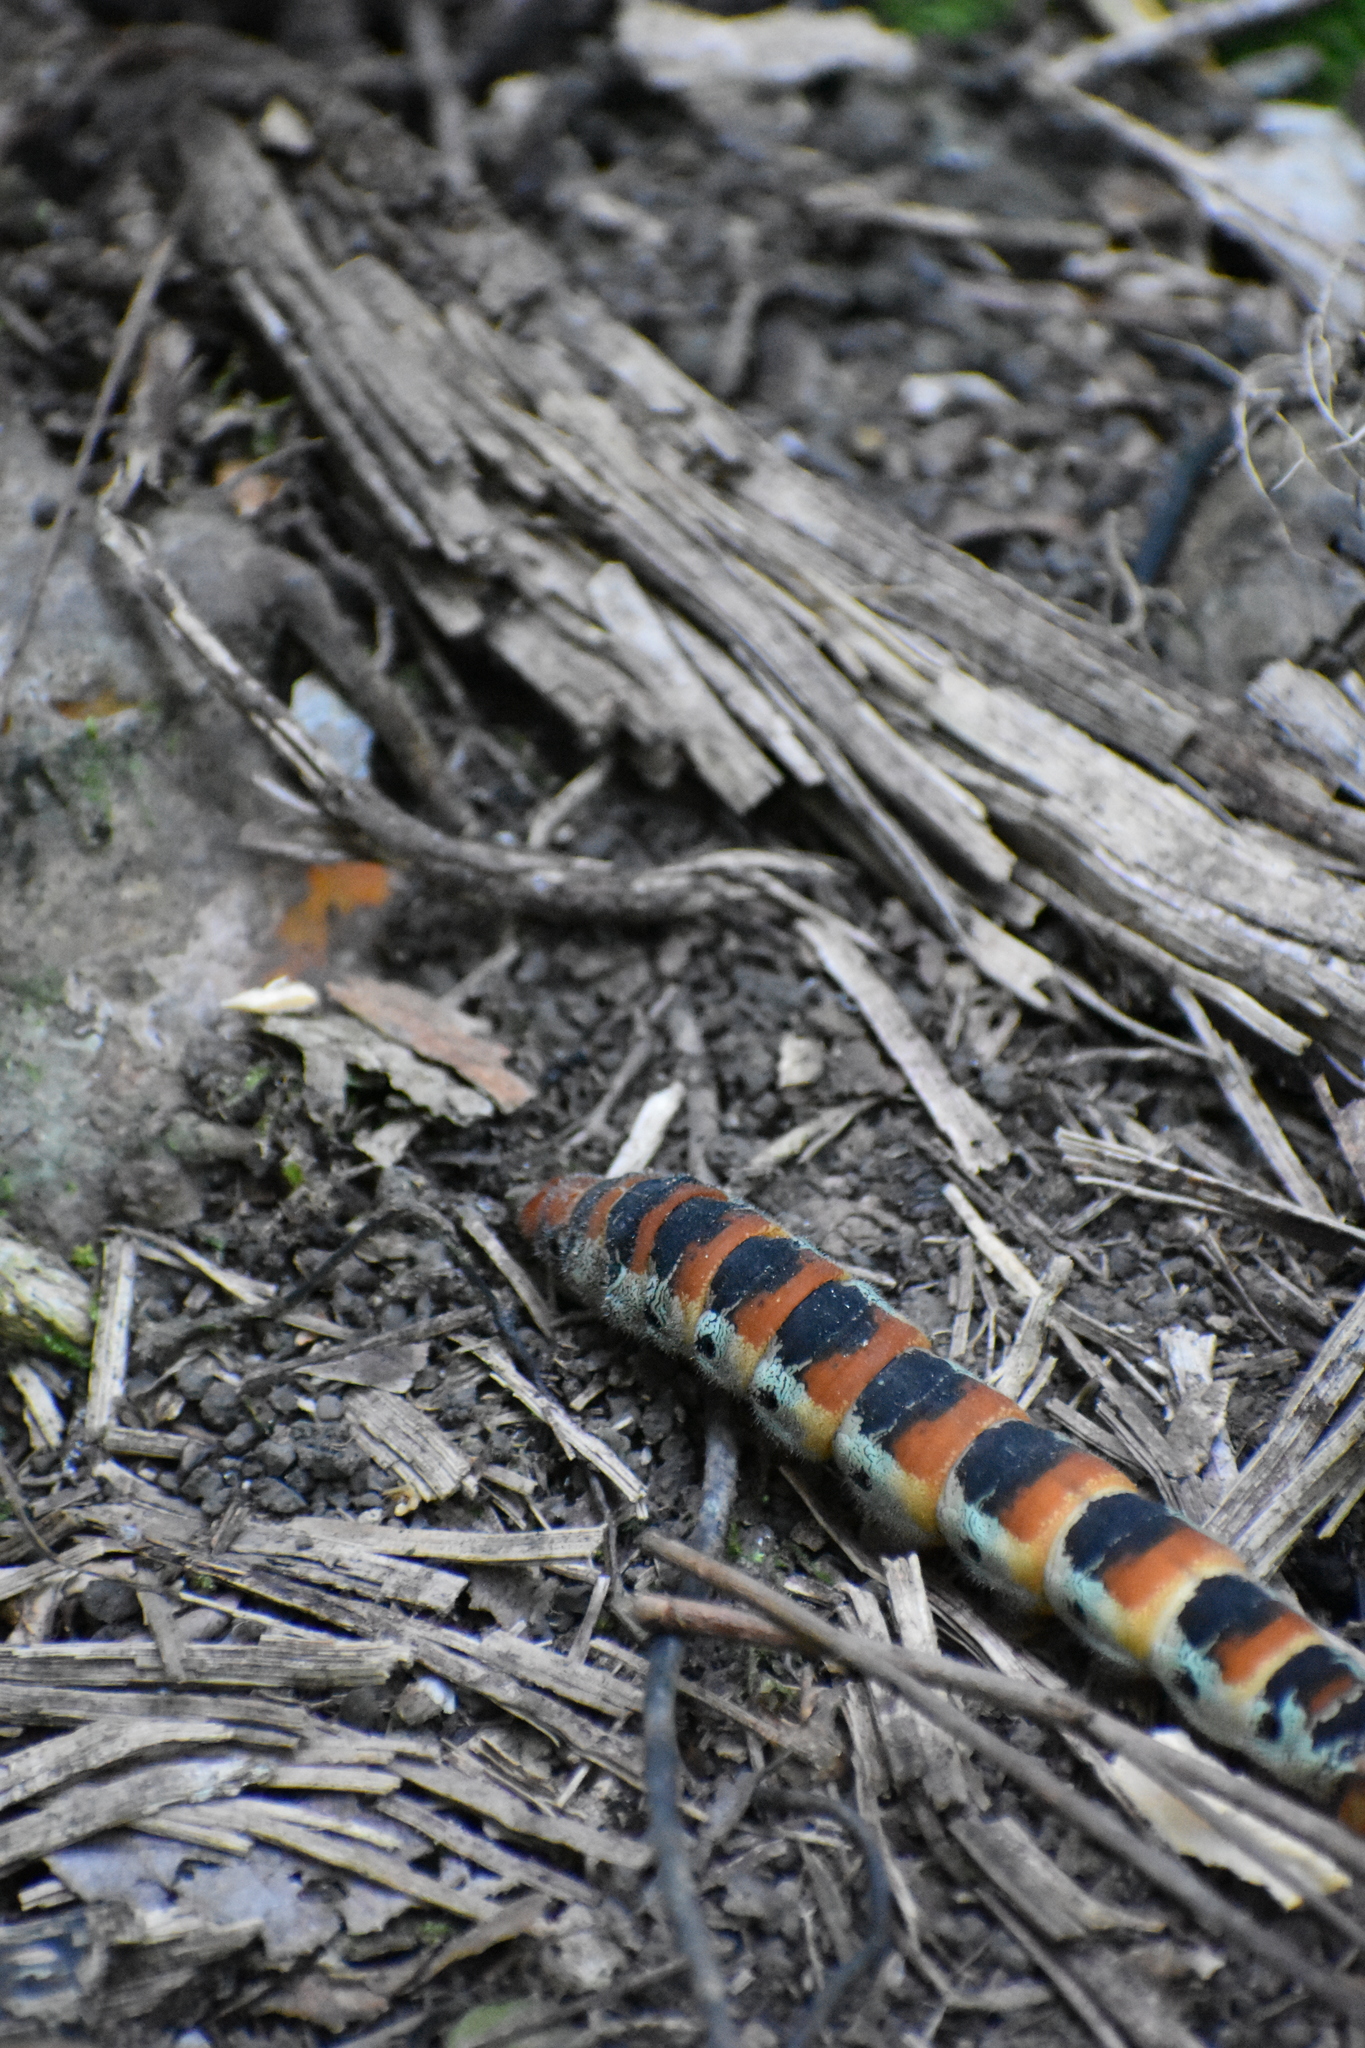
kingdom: Animalia
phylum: Arthropoda
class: Insecta
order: Lepidoptera
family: Saturniidae
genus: Arsenura
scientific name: Arsenura armida
